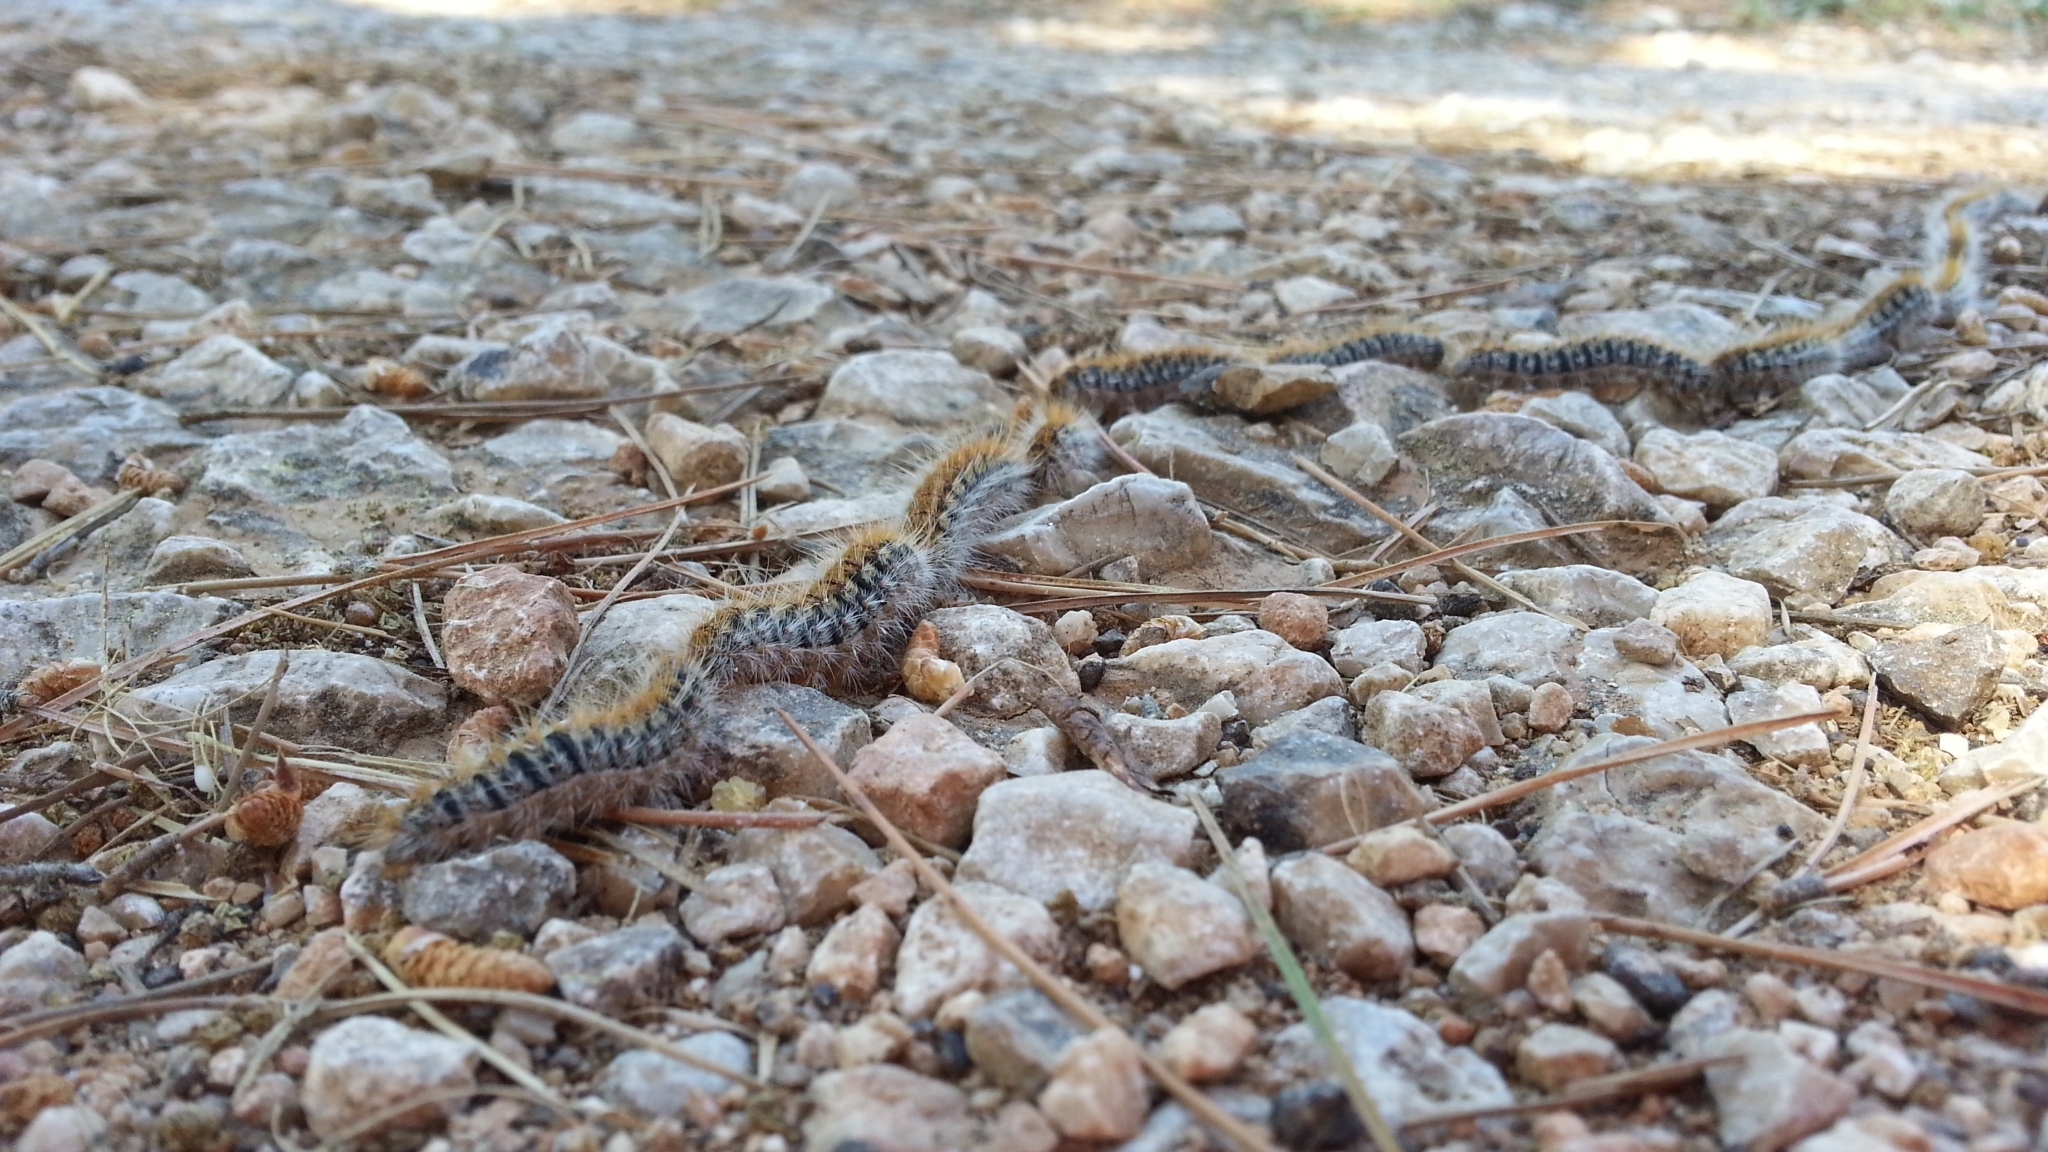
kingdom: Animalia
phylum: Arthropoda
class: Insecta
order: Lepidoptera
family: Notodontidae
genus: Thaumetopoea
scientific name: Thaumetopoea pityocampa
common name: Pine processionary
